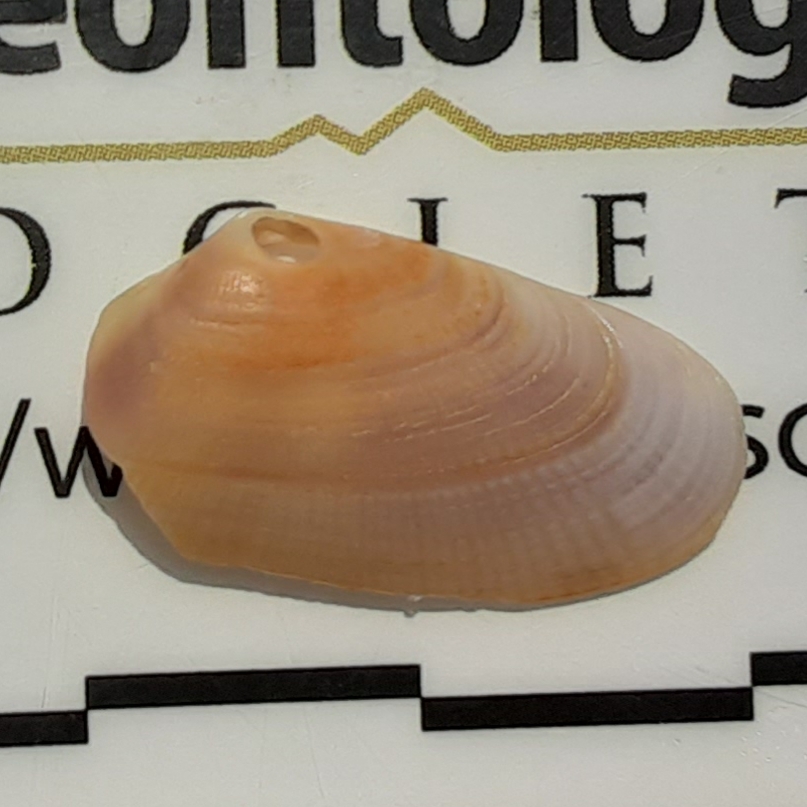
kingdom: Animalia
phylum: Mollusca
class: Bivalvia
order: Cardiida
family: Donacidae
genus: Donax
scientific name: Donax variabilis
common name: Butterfly shell
